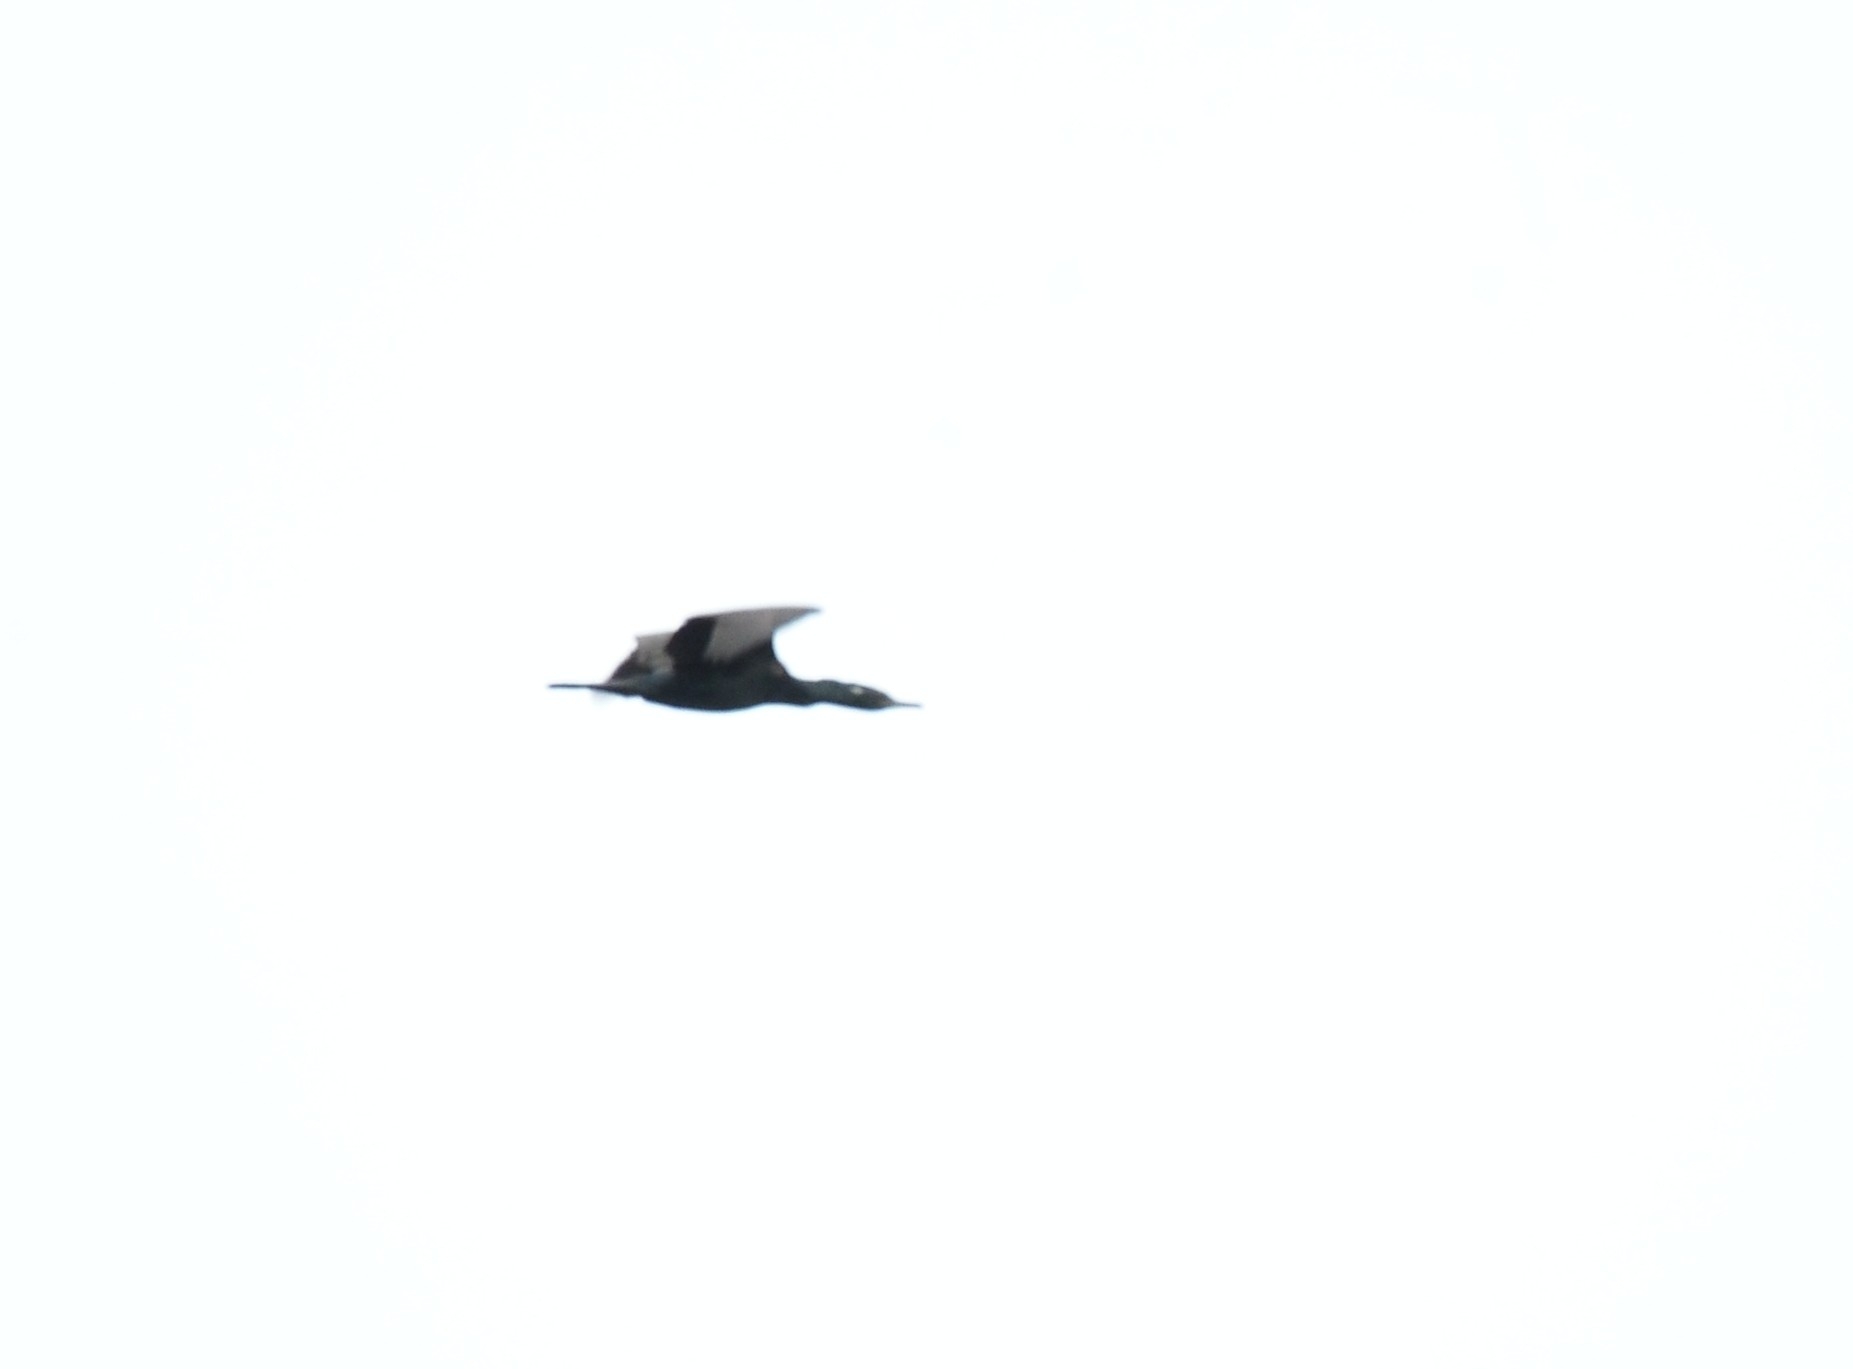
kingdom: Animalia
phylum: Chordata
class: Aves
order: Suliformes
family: Phalacrocoracidae
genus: Phalacrocorax
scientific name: Phalacrocorax fuscicollis
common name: Indian cormorant
